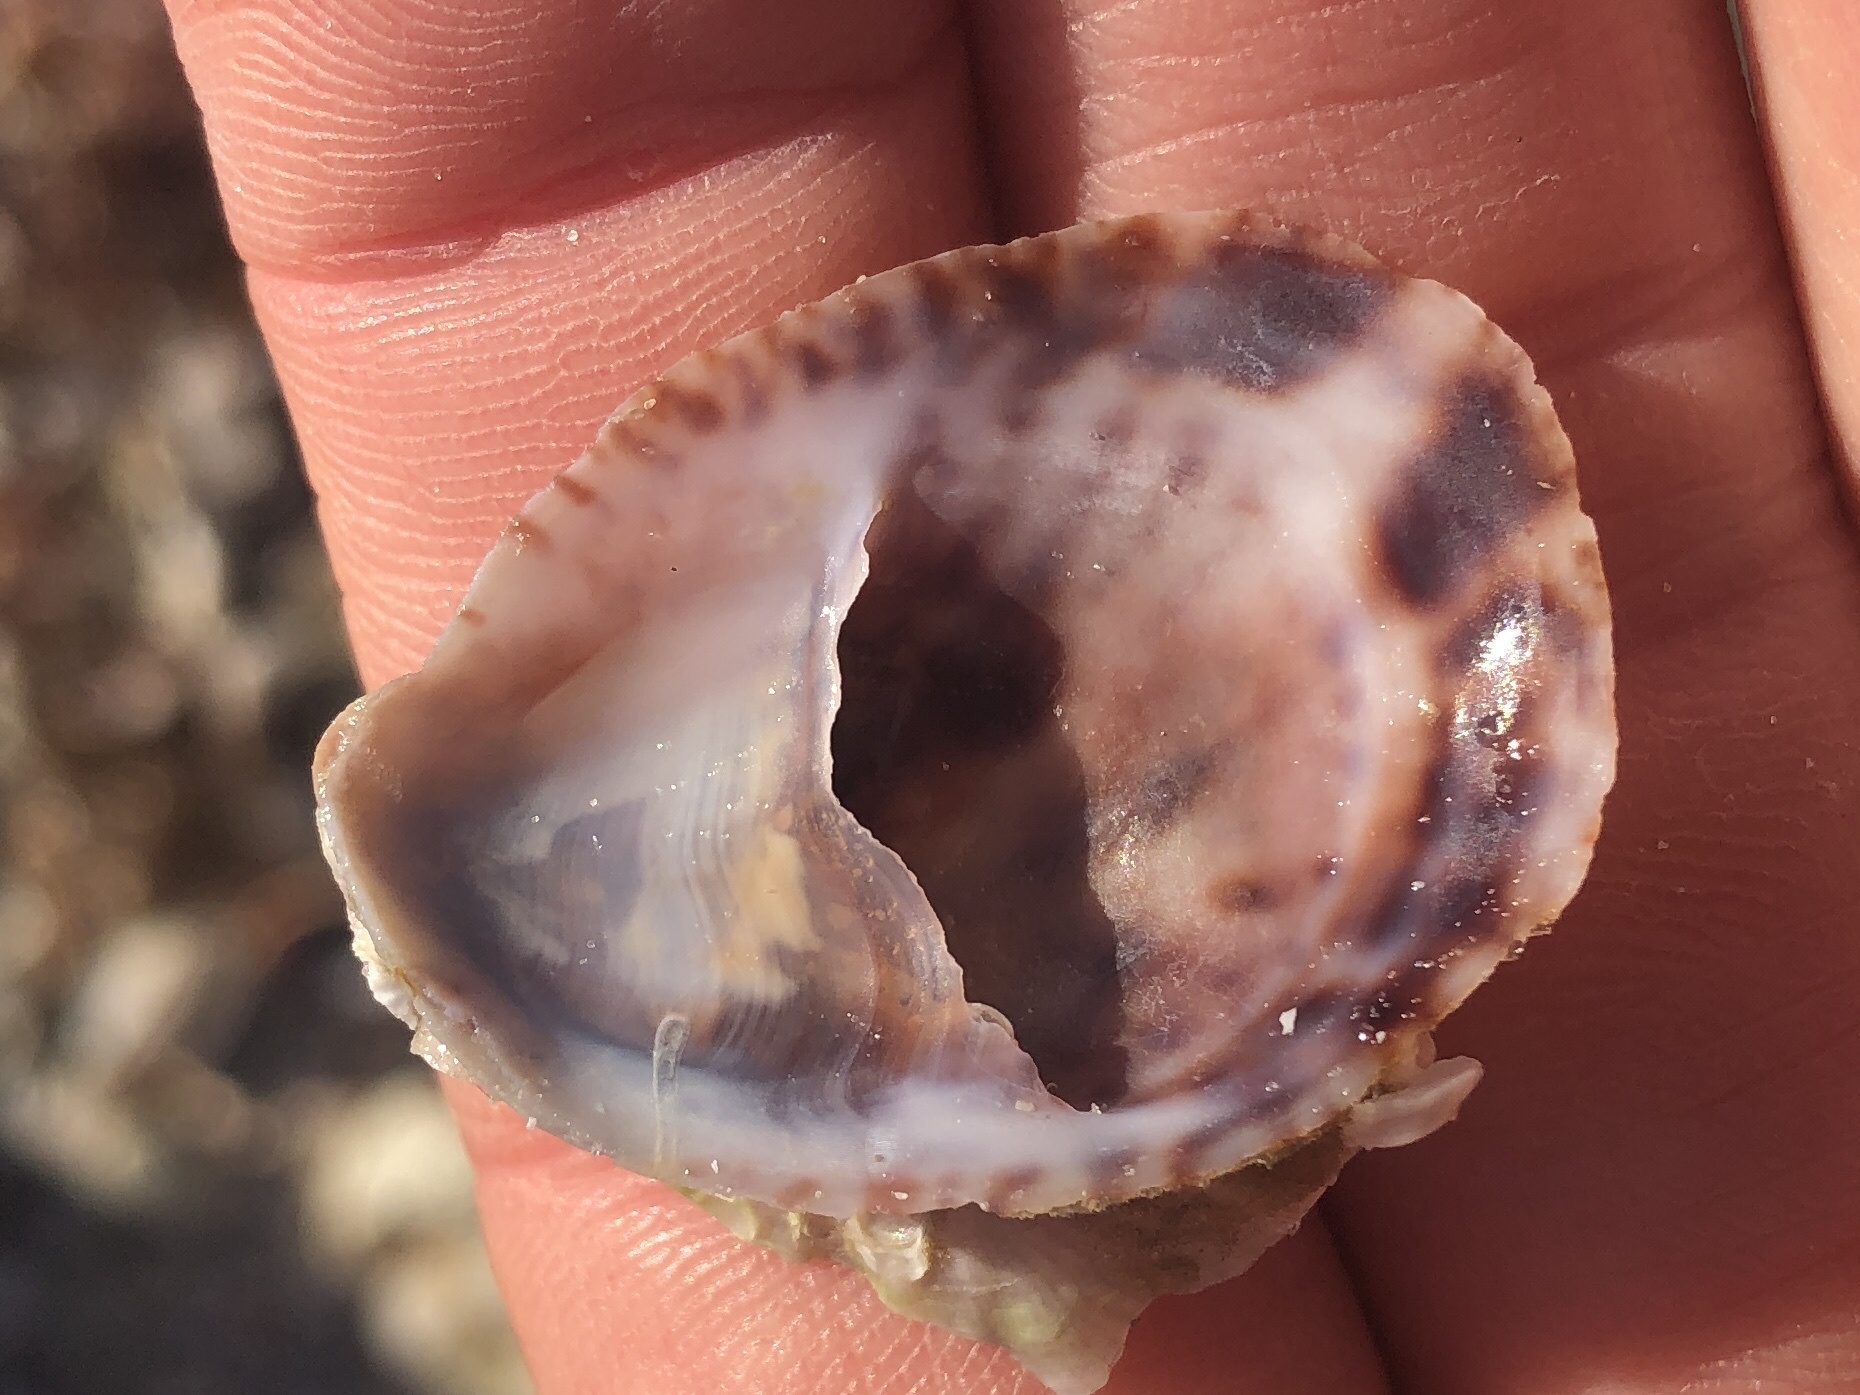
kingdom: Animalia
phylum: Mollusca
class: Gastropoda
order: Littorinimorpha
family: Calyptraeidae
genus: Crepidula
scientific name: Crepidula fornicata
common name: Slipper limpet
